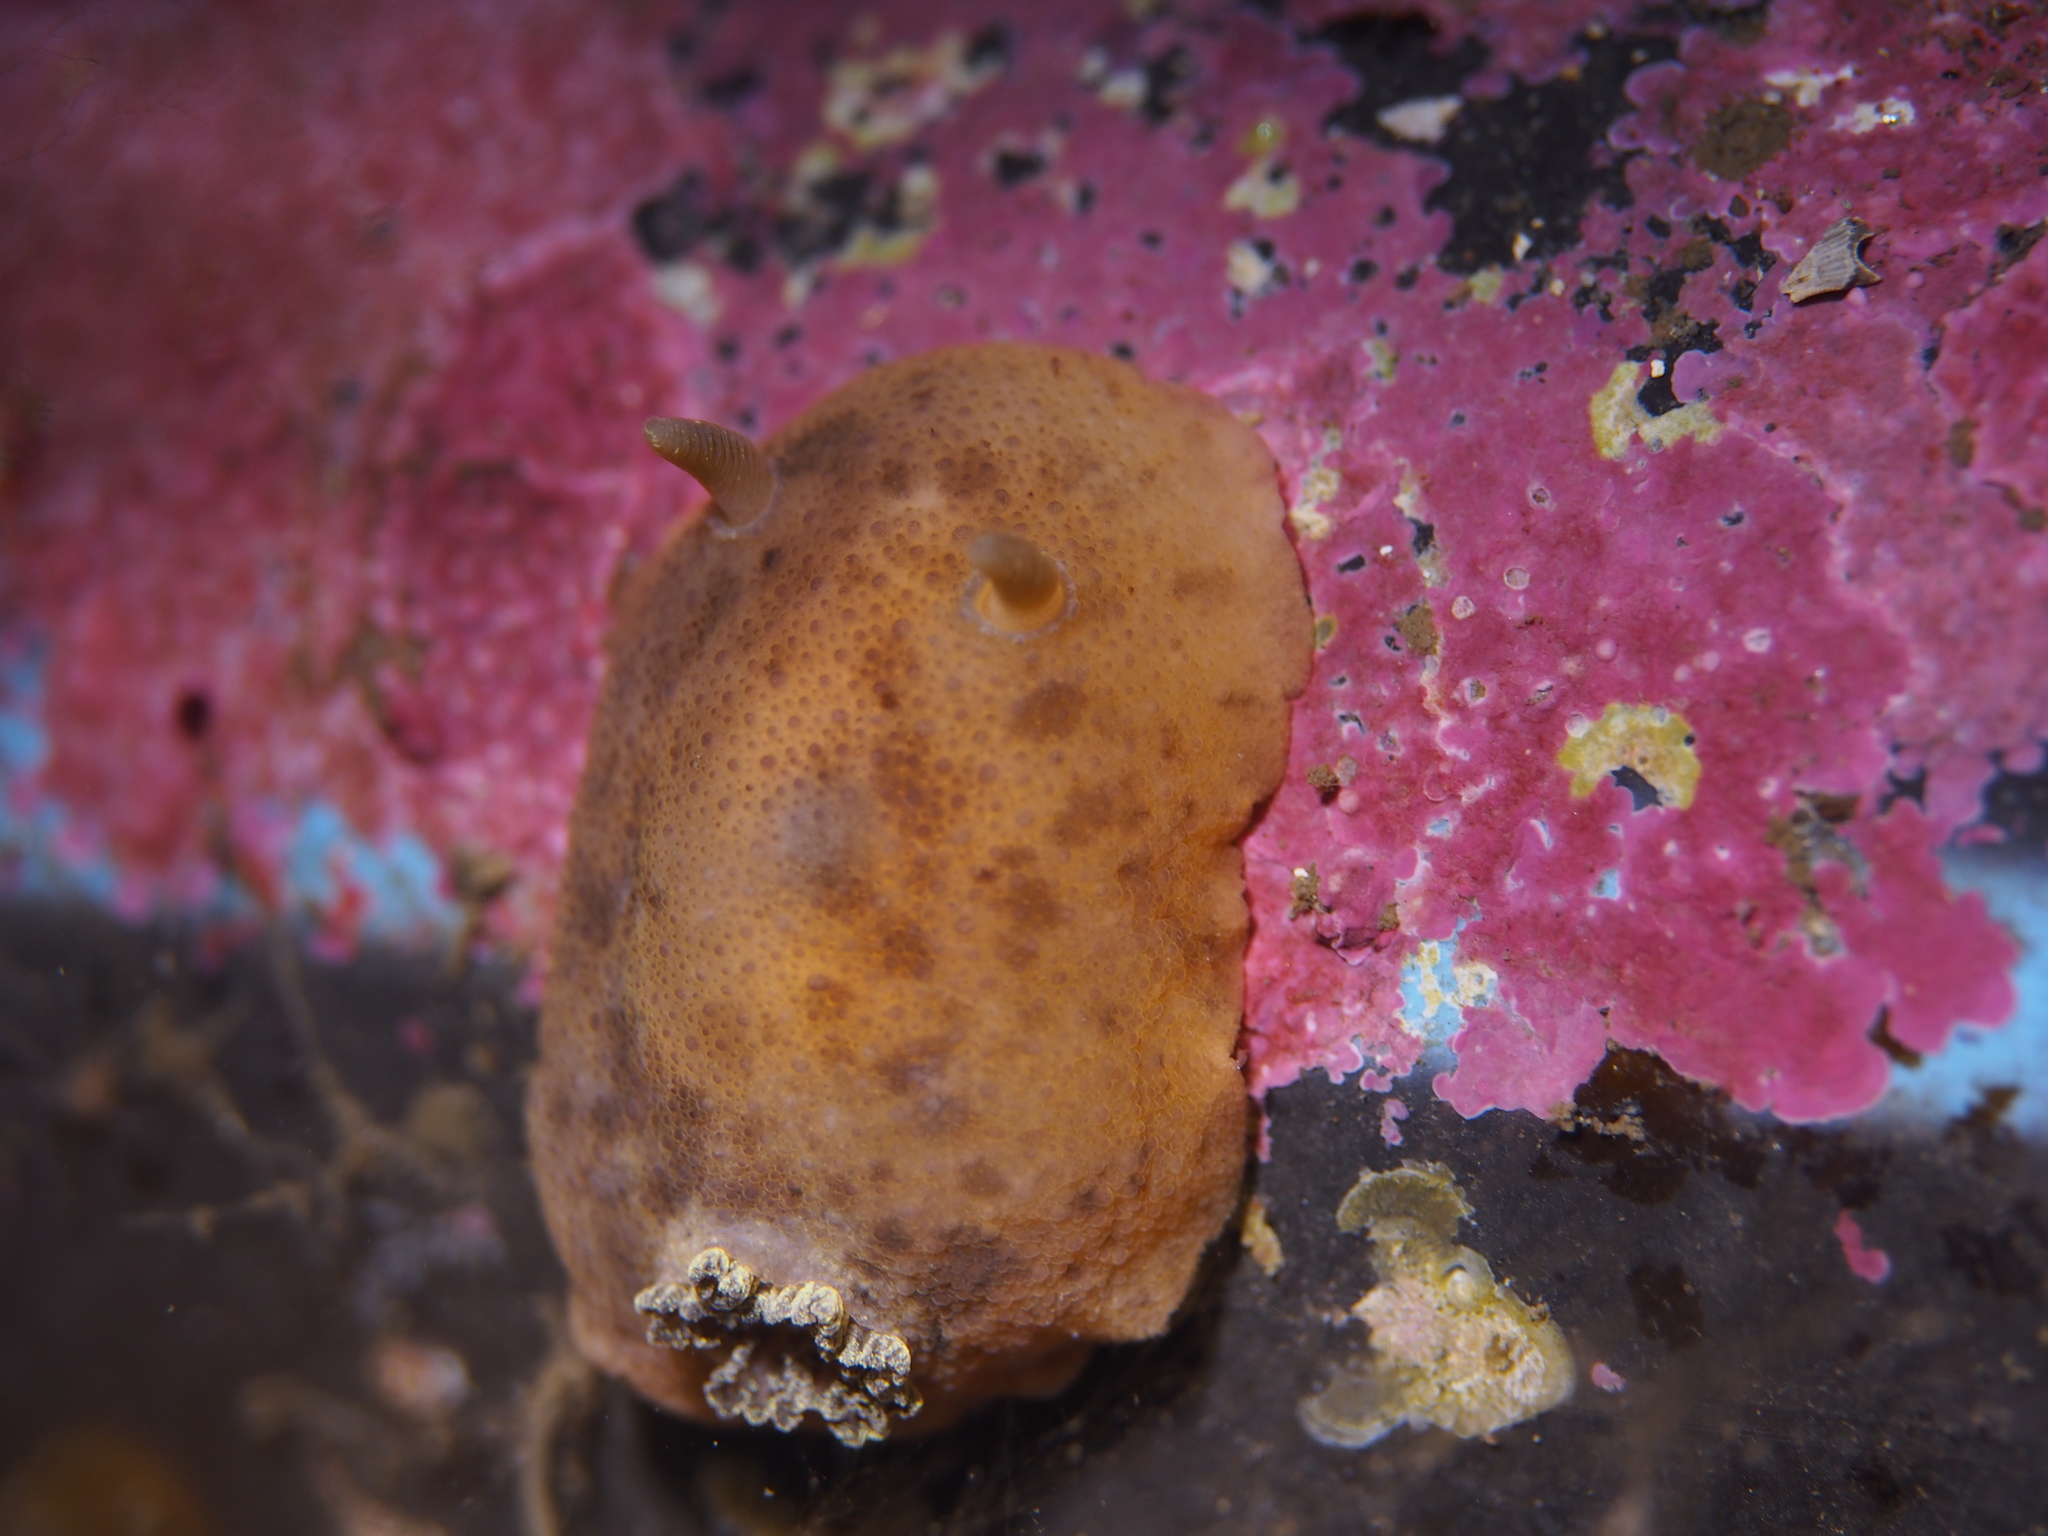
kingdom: Animalia
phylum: Mollusca
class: Gastropoda
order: Nudibranchia
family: Dorididae
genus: Doris
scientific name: Doris pseudoargus
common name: Sea lemon
